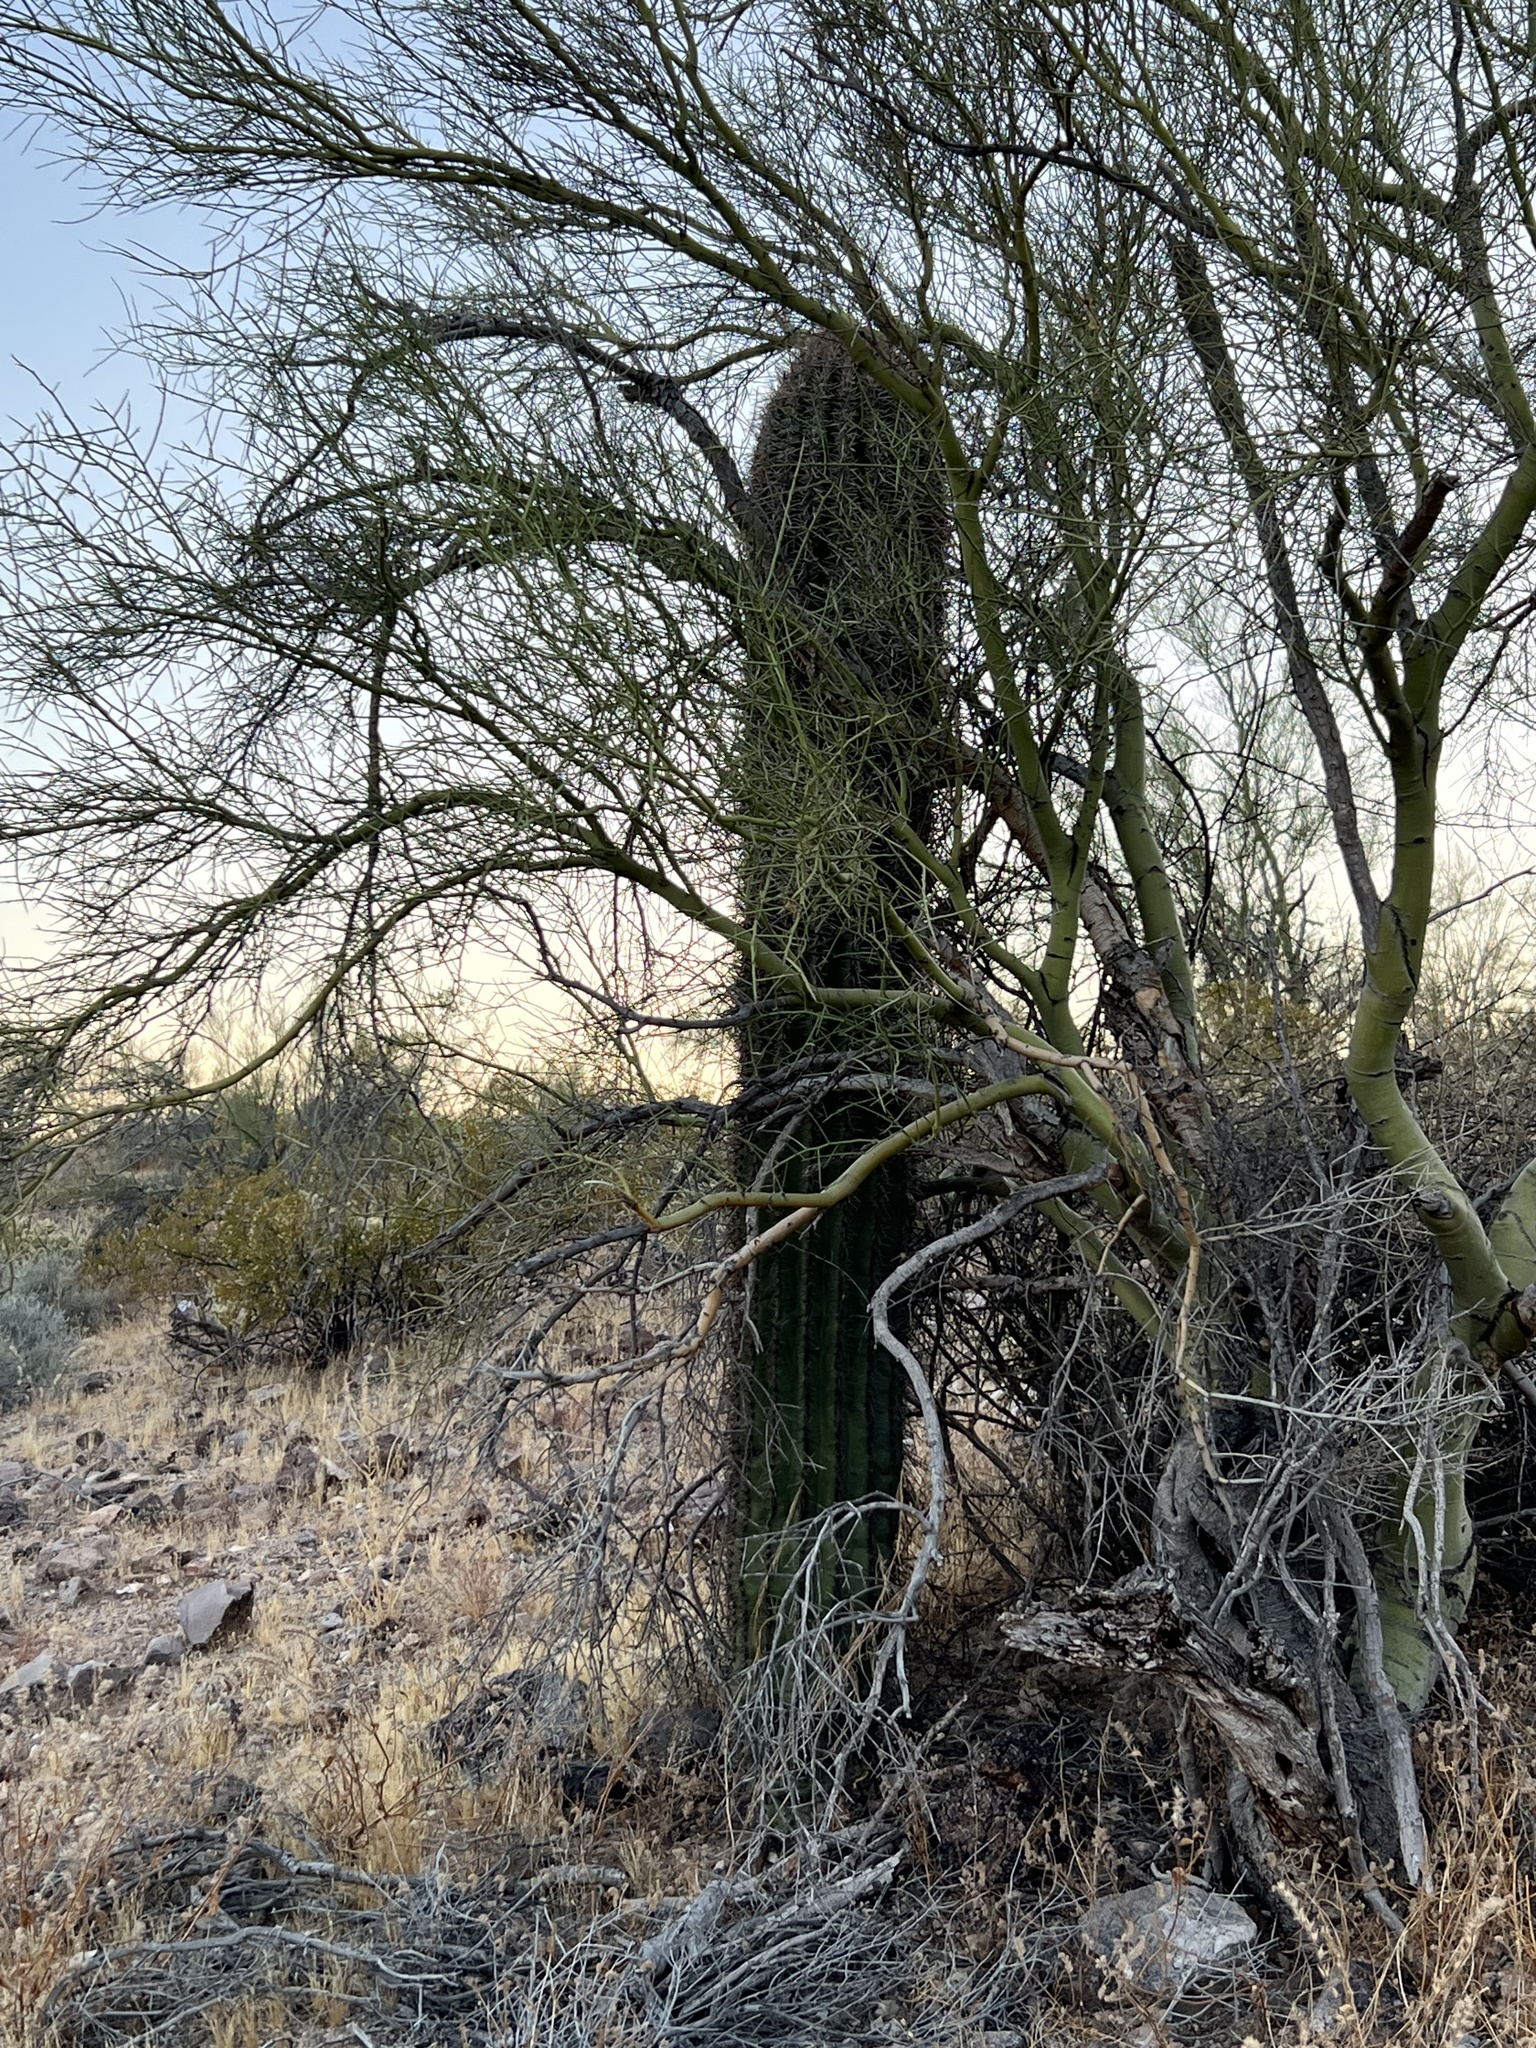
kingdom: Plantae
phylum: Tracheophyta
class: Magnoliopsida
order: Caryophyllales
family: Cactaceae
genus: Carnegiea
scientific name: Carnegiea gigantea
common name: Saguaro
